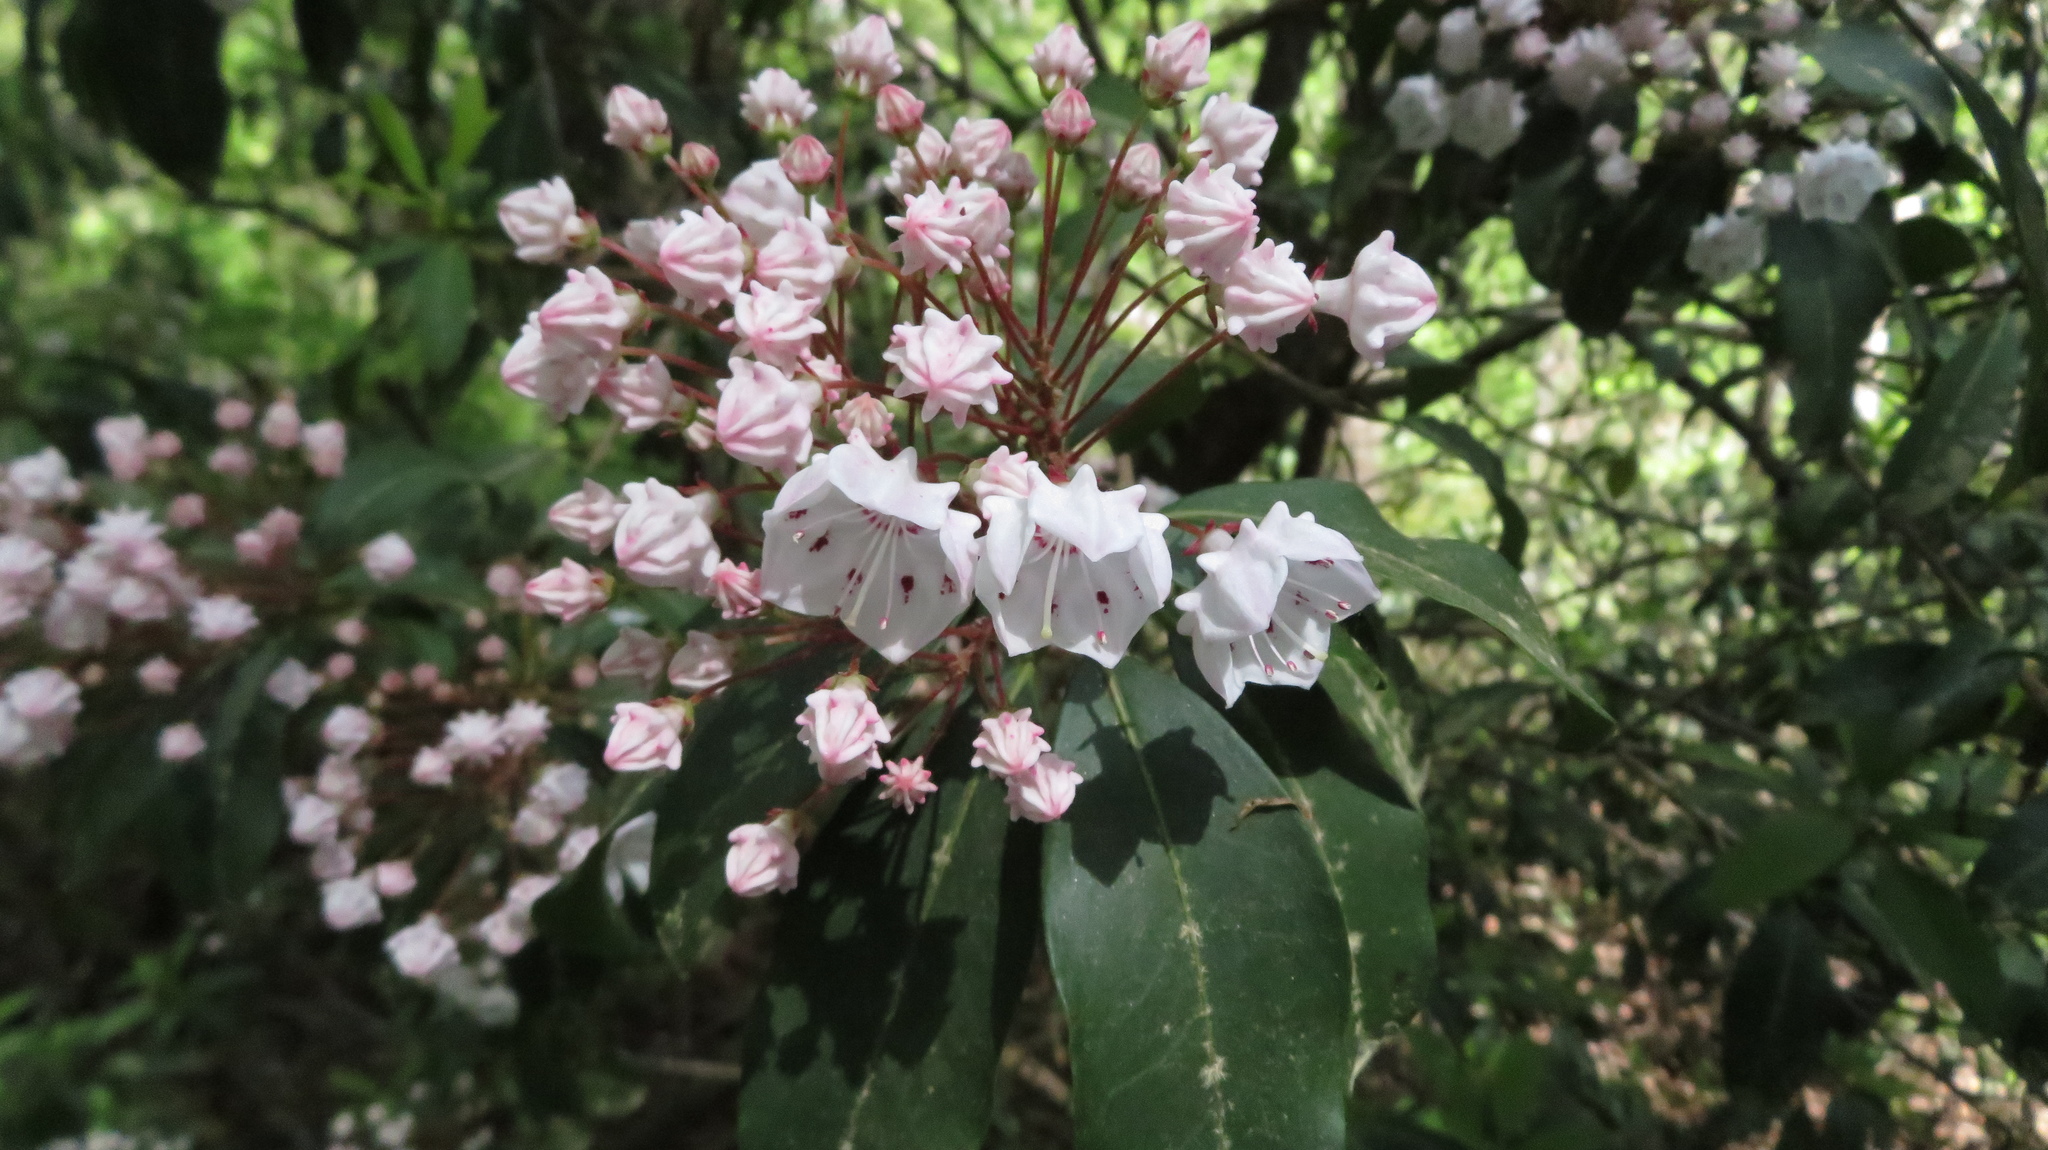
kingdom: Plantae
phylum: Tracheophyta
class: Magnoliopsida
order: Ericales
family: Ericaceae
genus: Kalmia
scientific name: Kalmia latifolia
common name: Mountain-laurel
